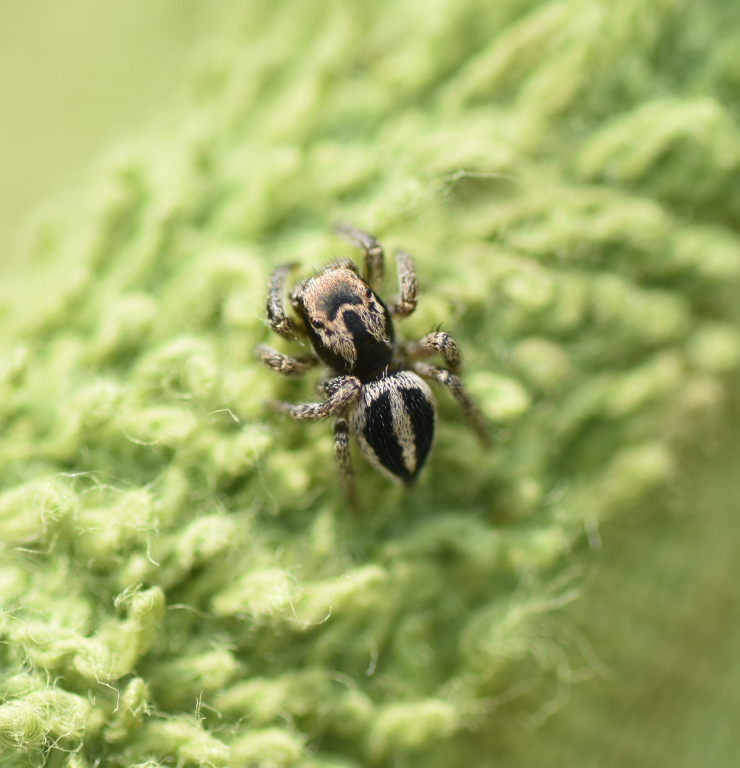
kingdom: Animalia
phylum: Arthropoda
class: Arachnida
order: Araneae
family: Salticidae
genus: Habronattus
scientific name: Habronattus calcaratus
